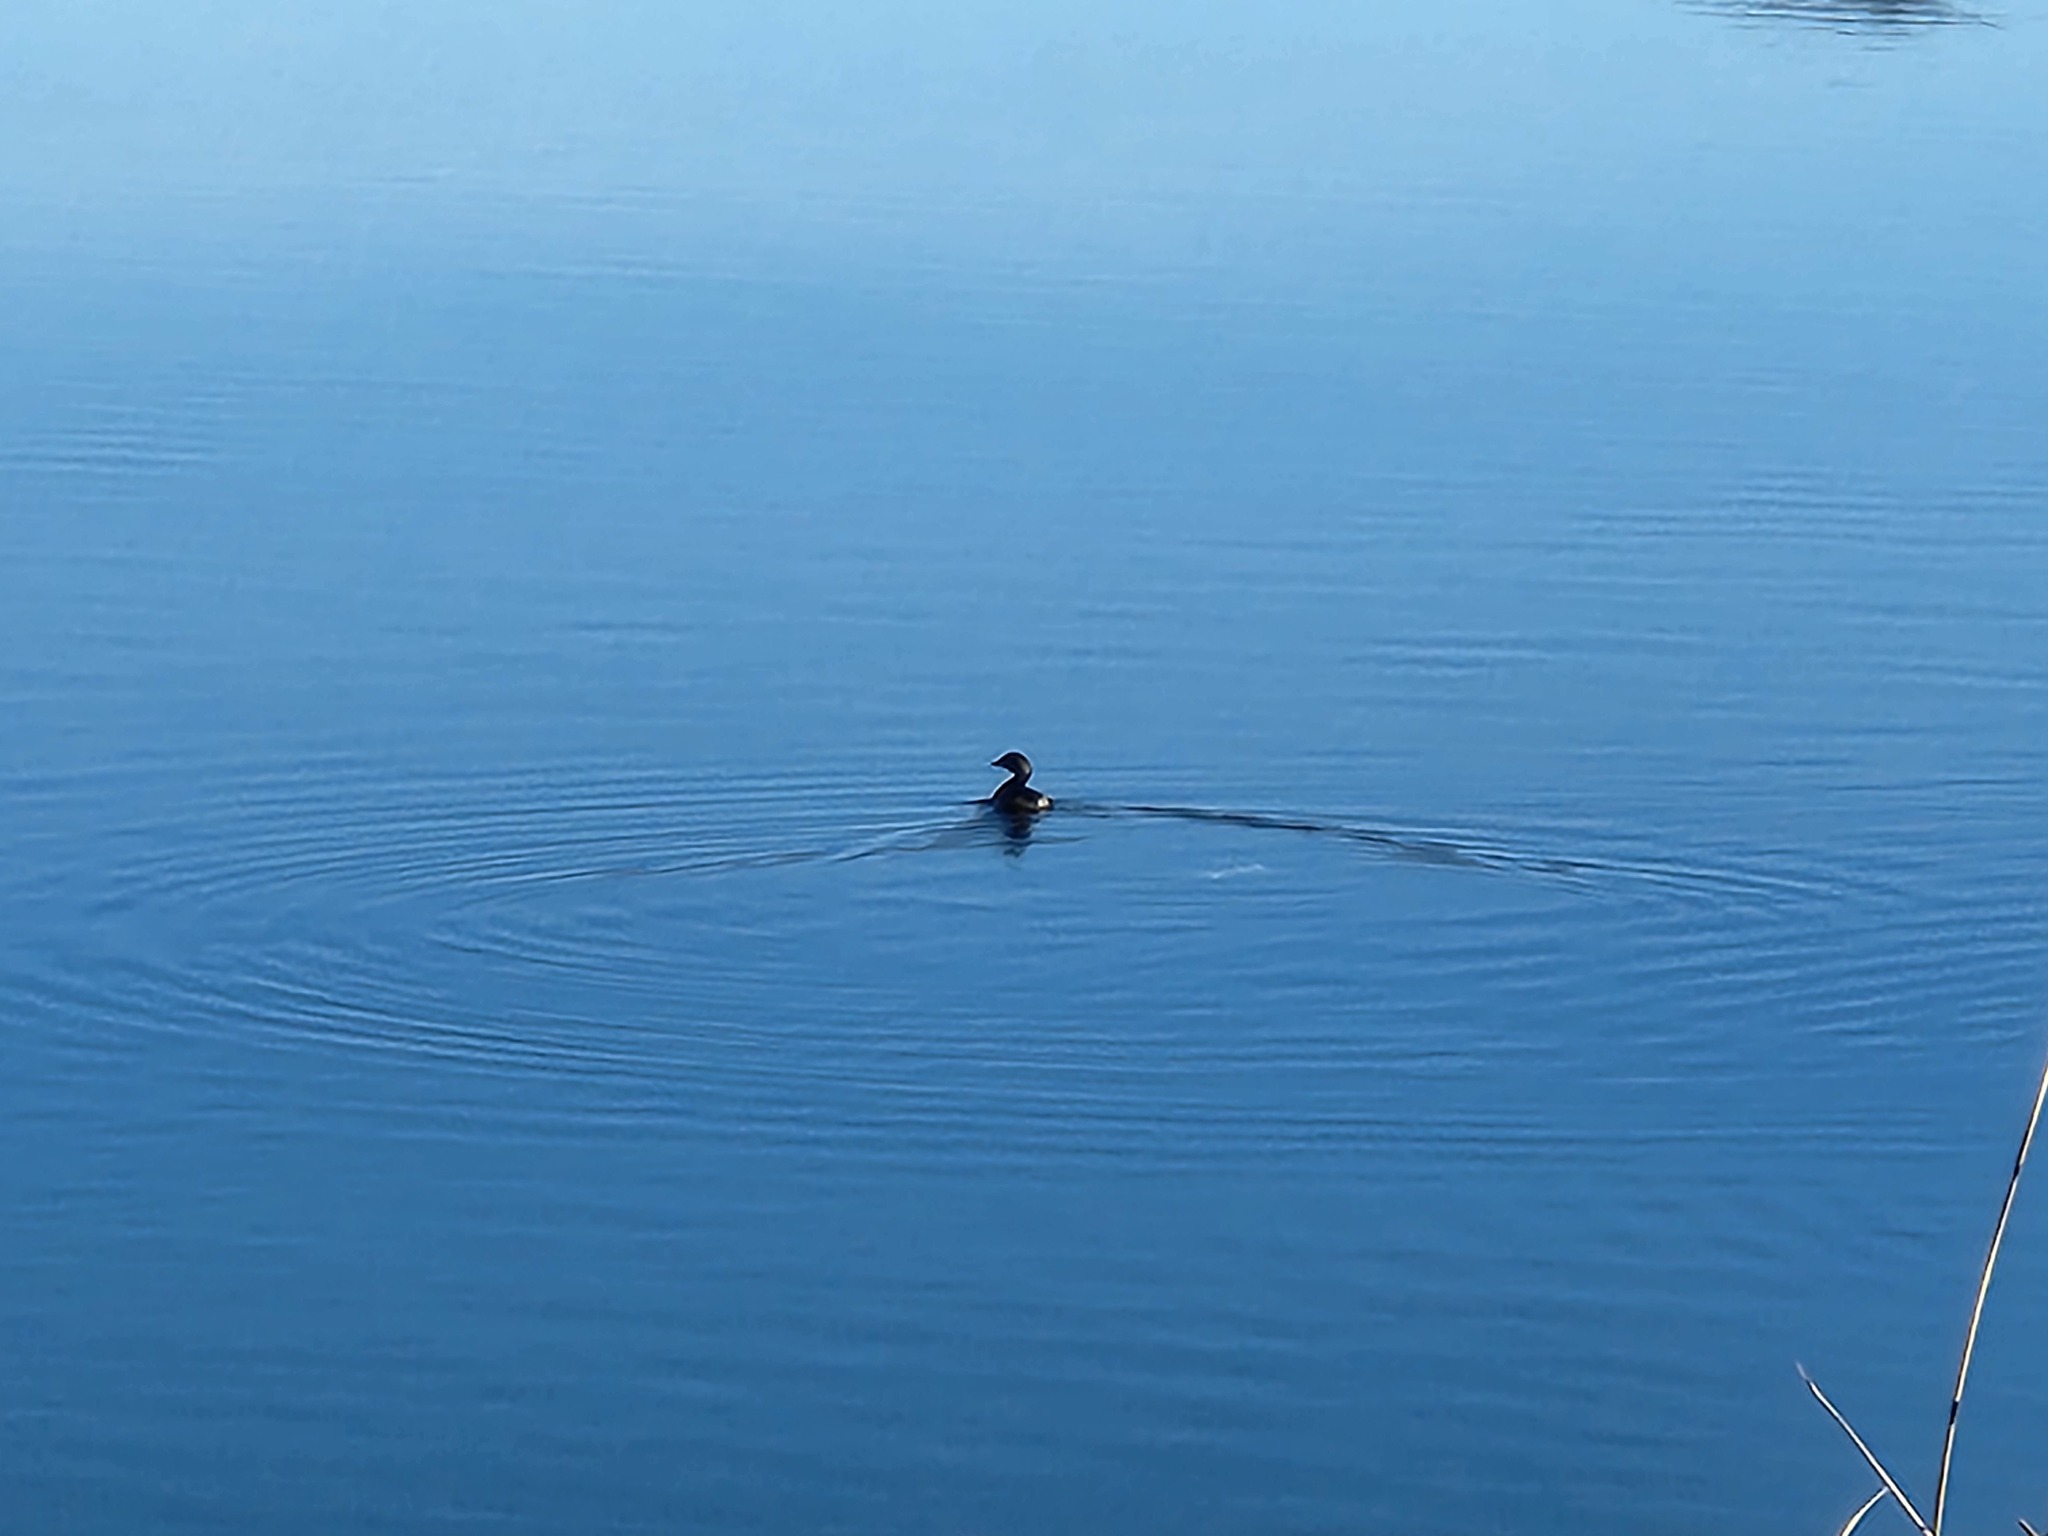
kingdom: Animalia
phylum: Chordata
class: Aves
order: Podicipediformes
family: Podicipedidae
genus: Podilymbus
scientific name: Podilymbus podiceps
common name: Pied-billed grebe
